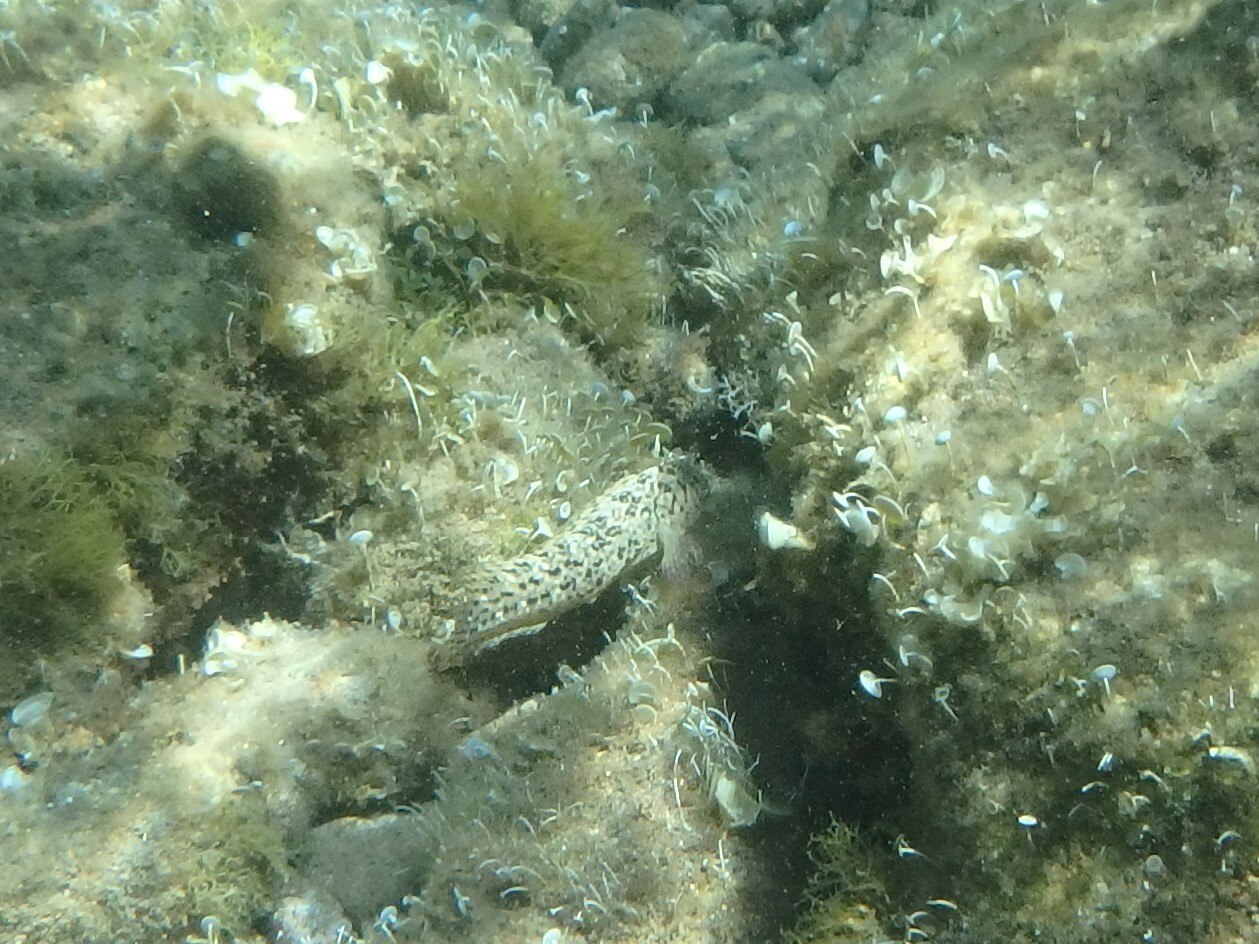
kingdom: Animalia
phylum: Chordata
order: Perciformes
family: Blenniidae
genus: Parablennius
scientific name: Parablennius sanguinolentus
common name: Black sea blenny
